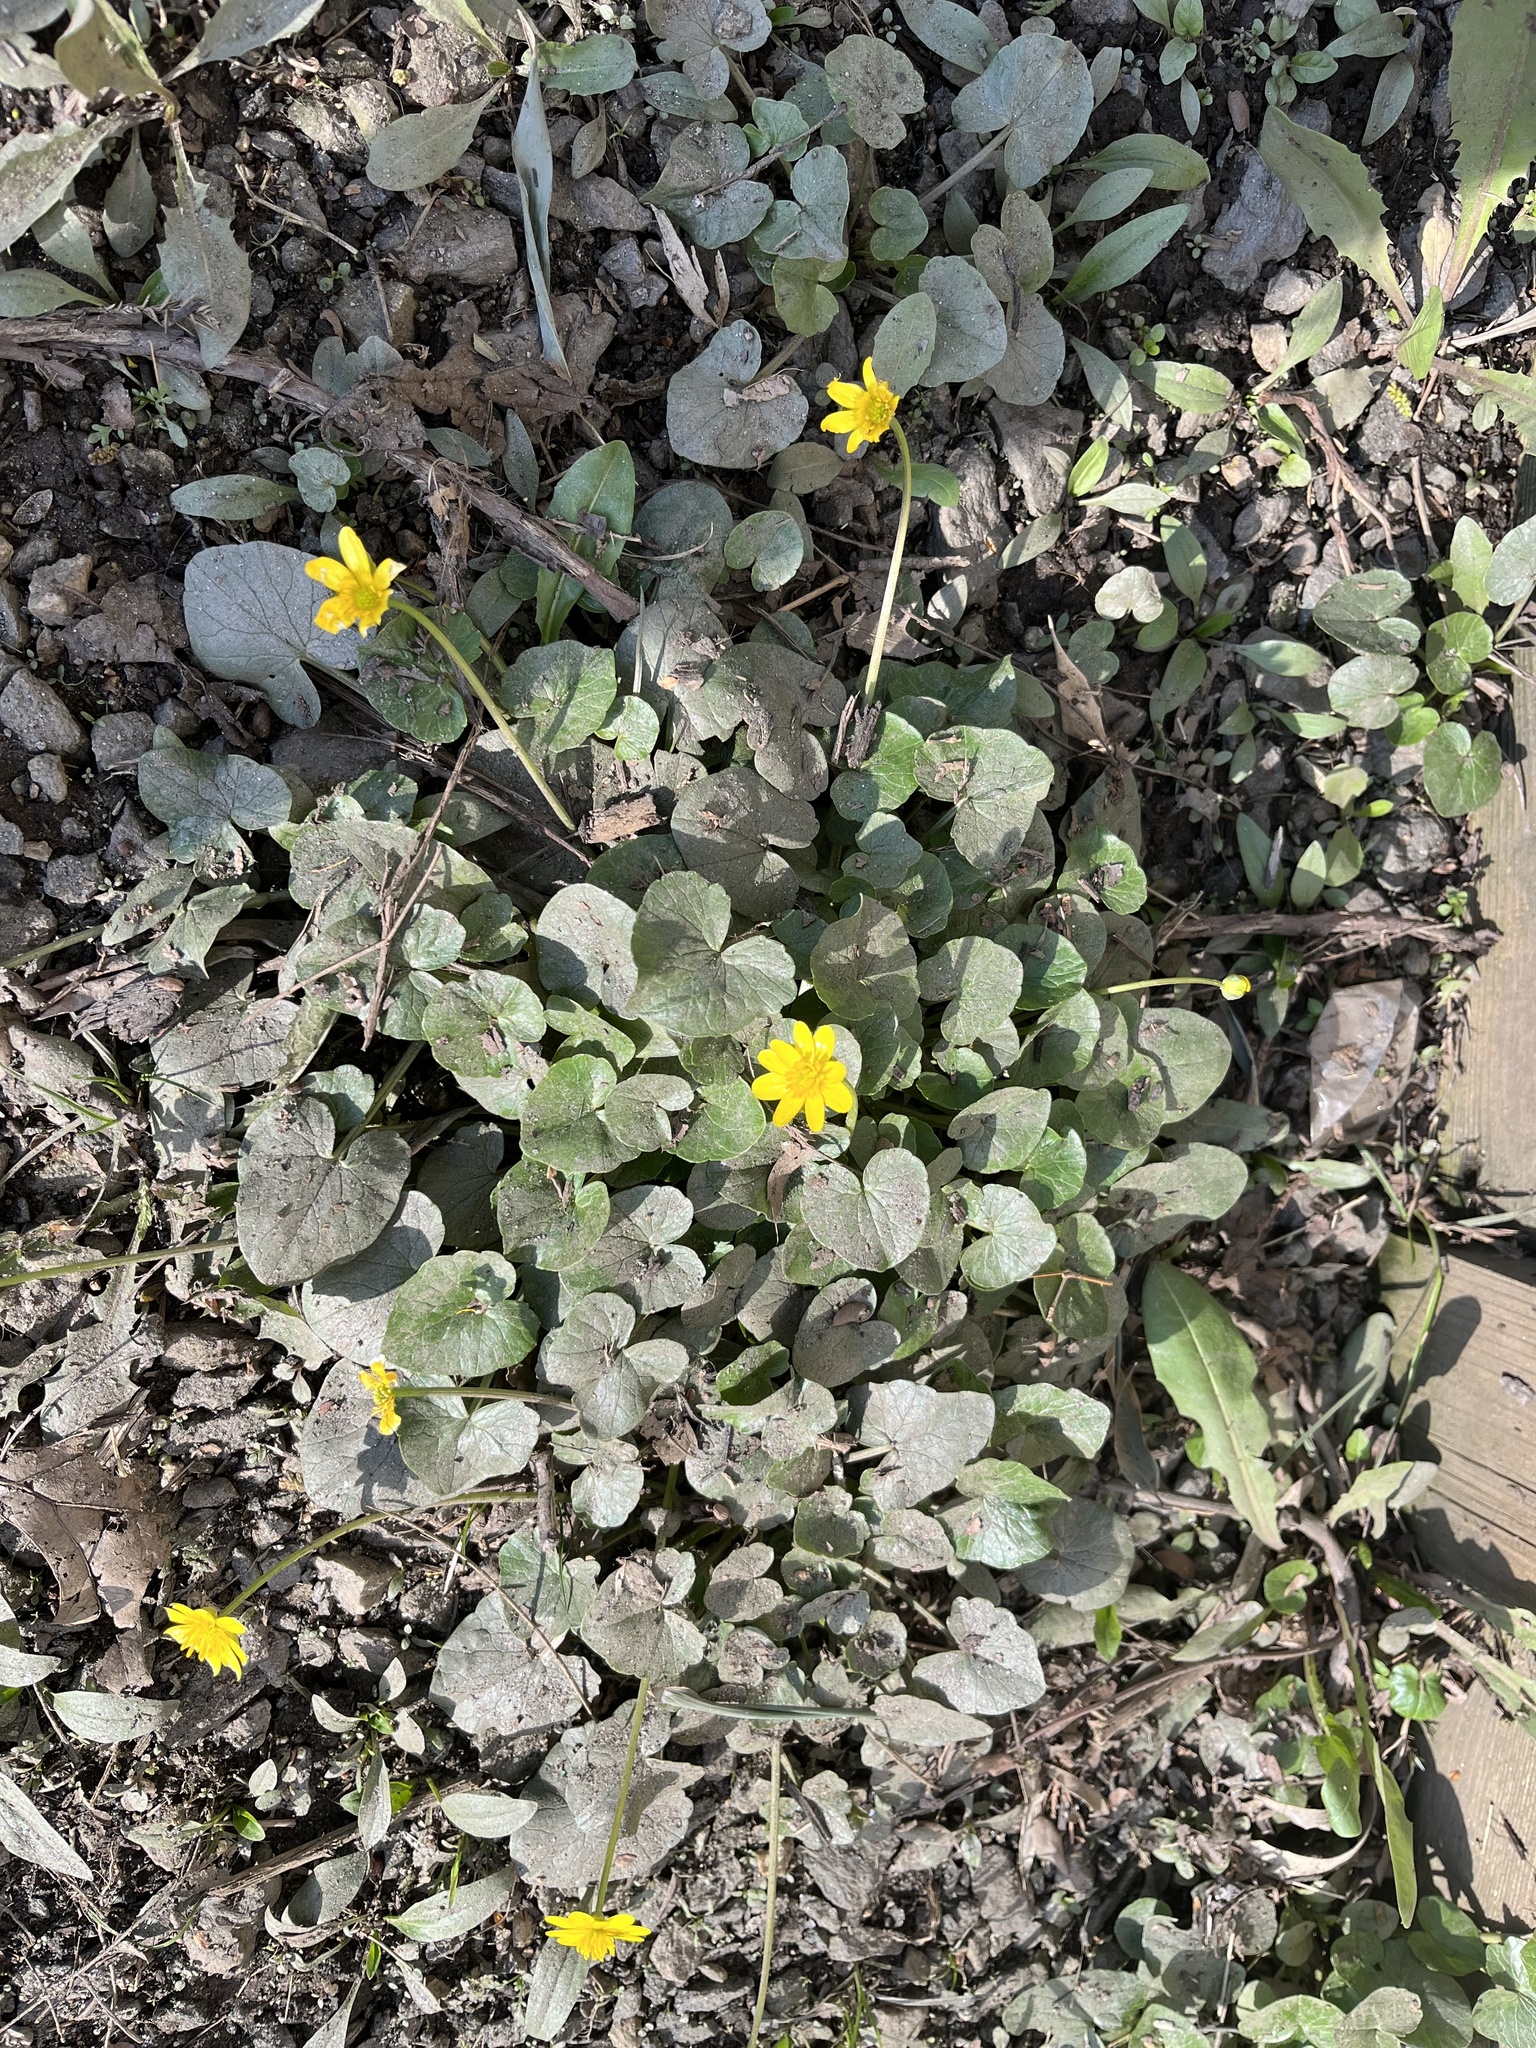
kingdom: Plantae
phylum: Tracheophyta
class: Magnoliopsida
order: Ranunculales
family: Ranunculaceae
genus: Ficaria
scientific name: Ficaria verna
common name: Lesser celandine
